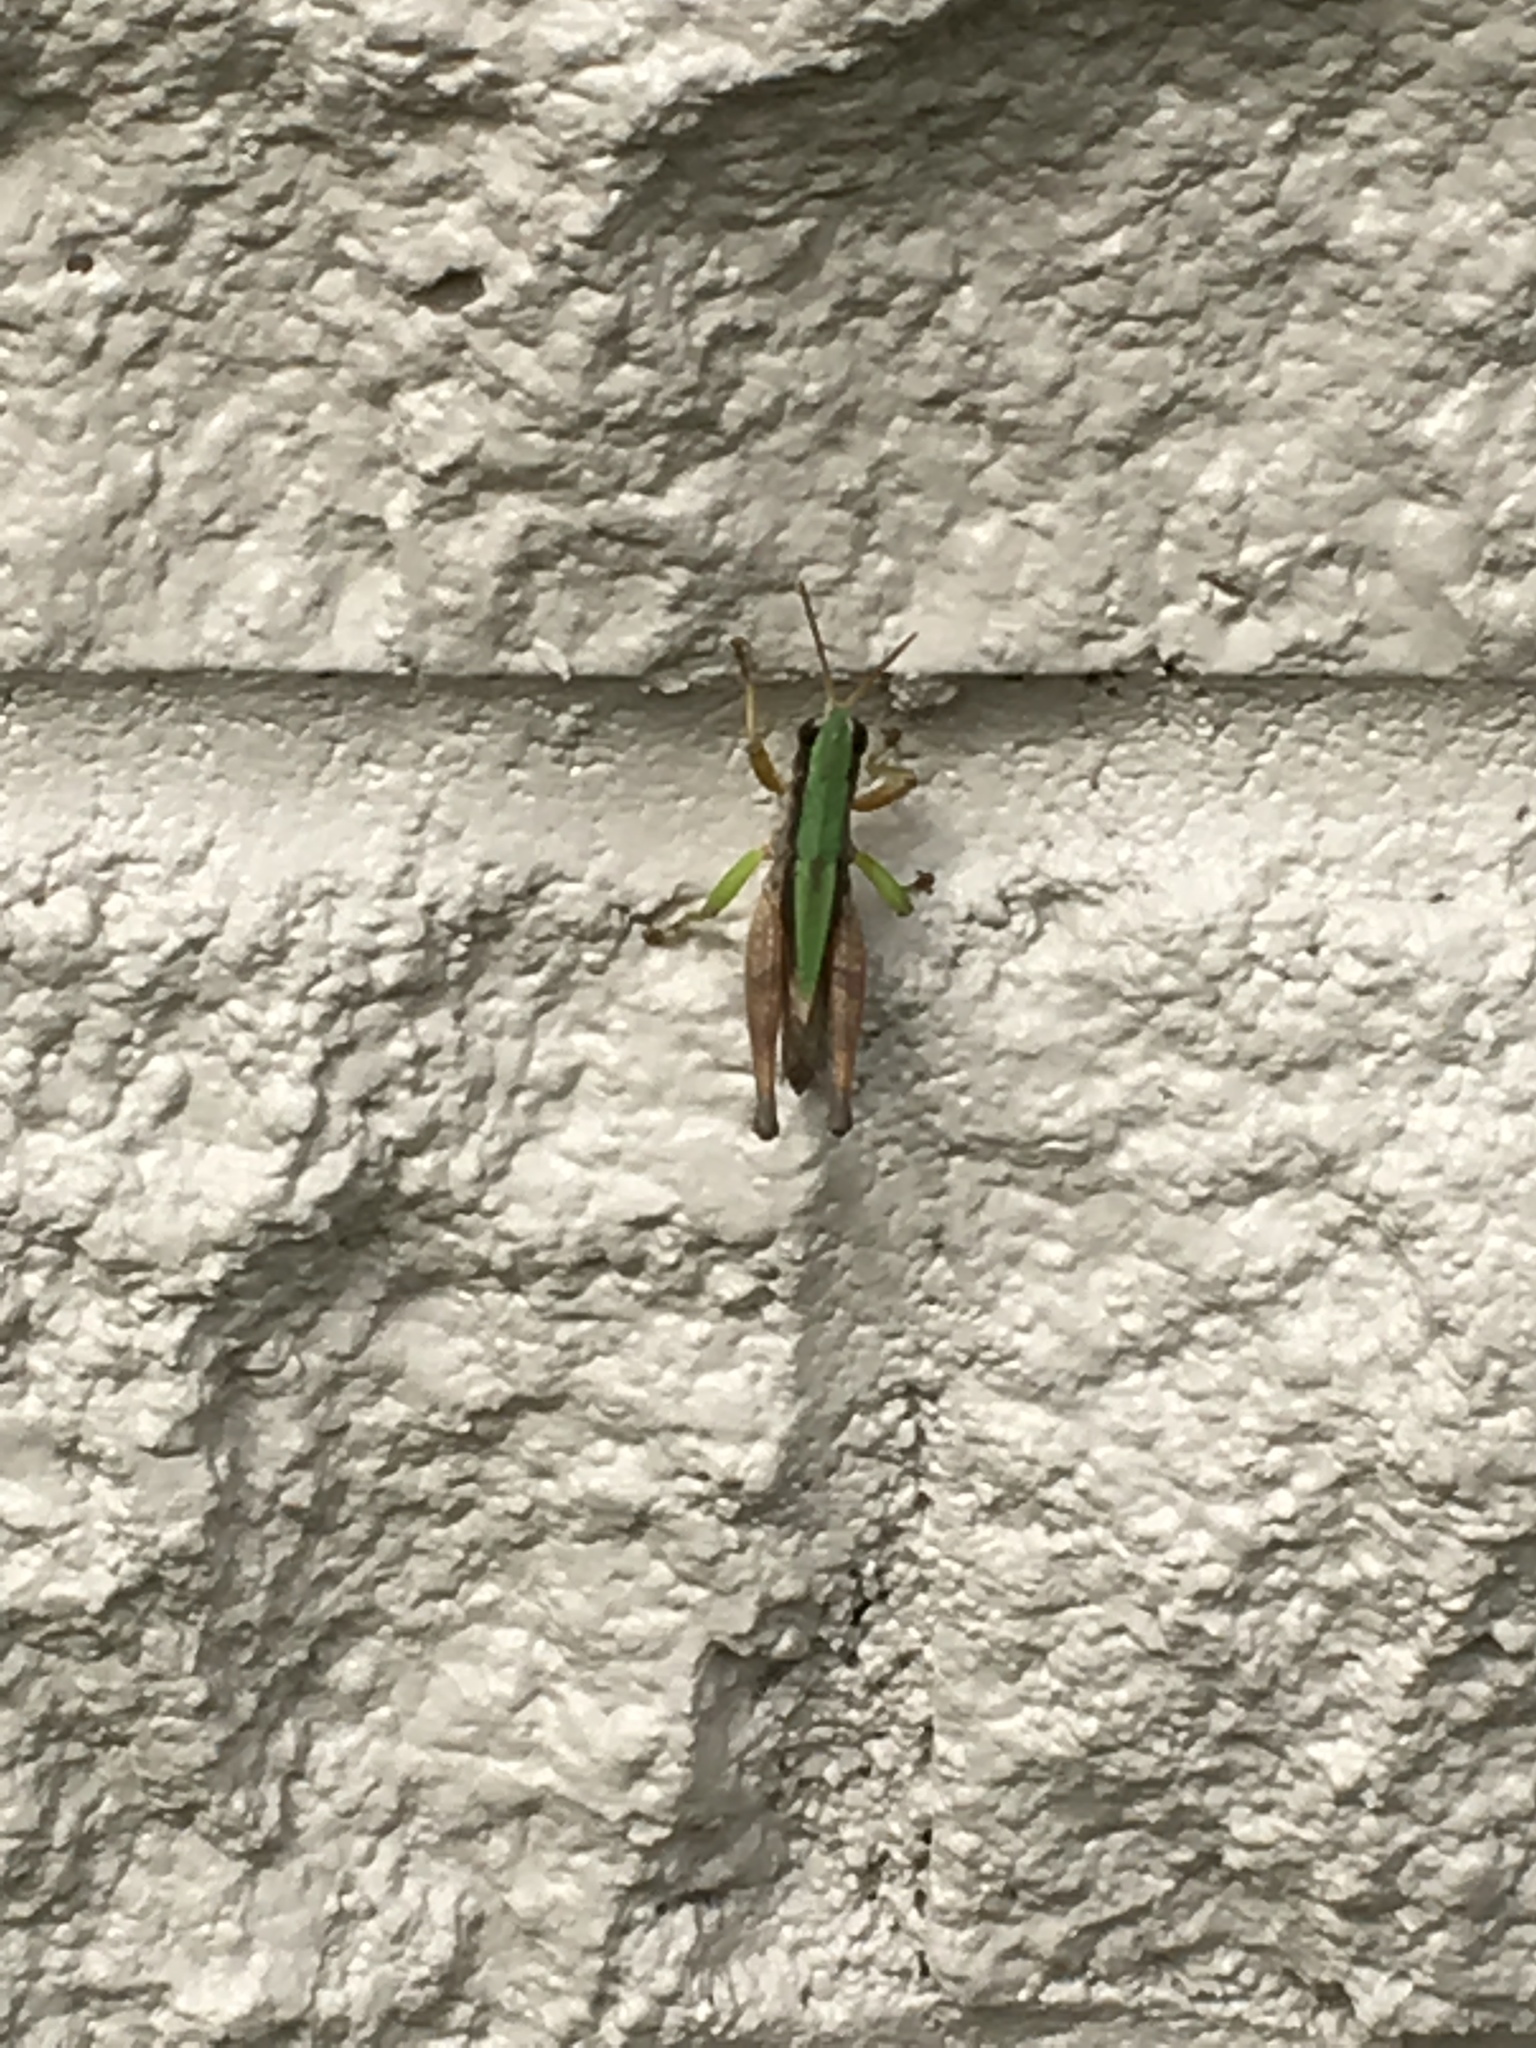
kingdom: Animalia
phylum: Arthropoda
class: Insecta
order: Orthoptera
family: Acrididae
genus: Dichromorpha
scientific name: Dichromorpha viridis
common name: Short-winged green grasshopper
